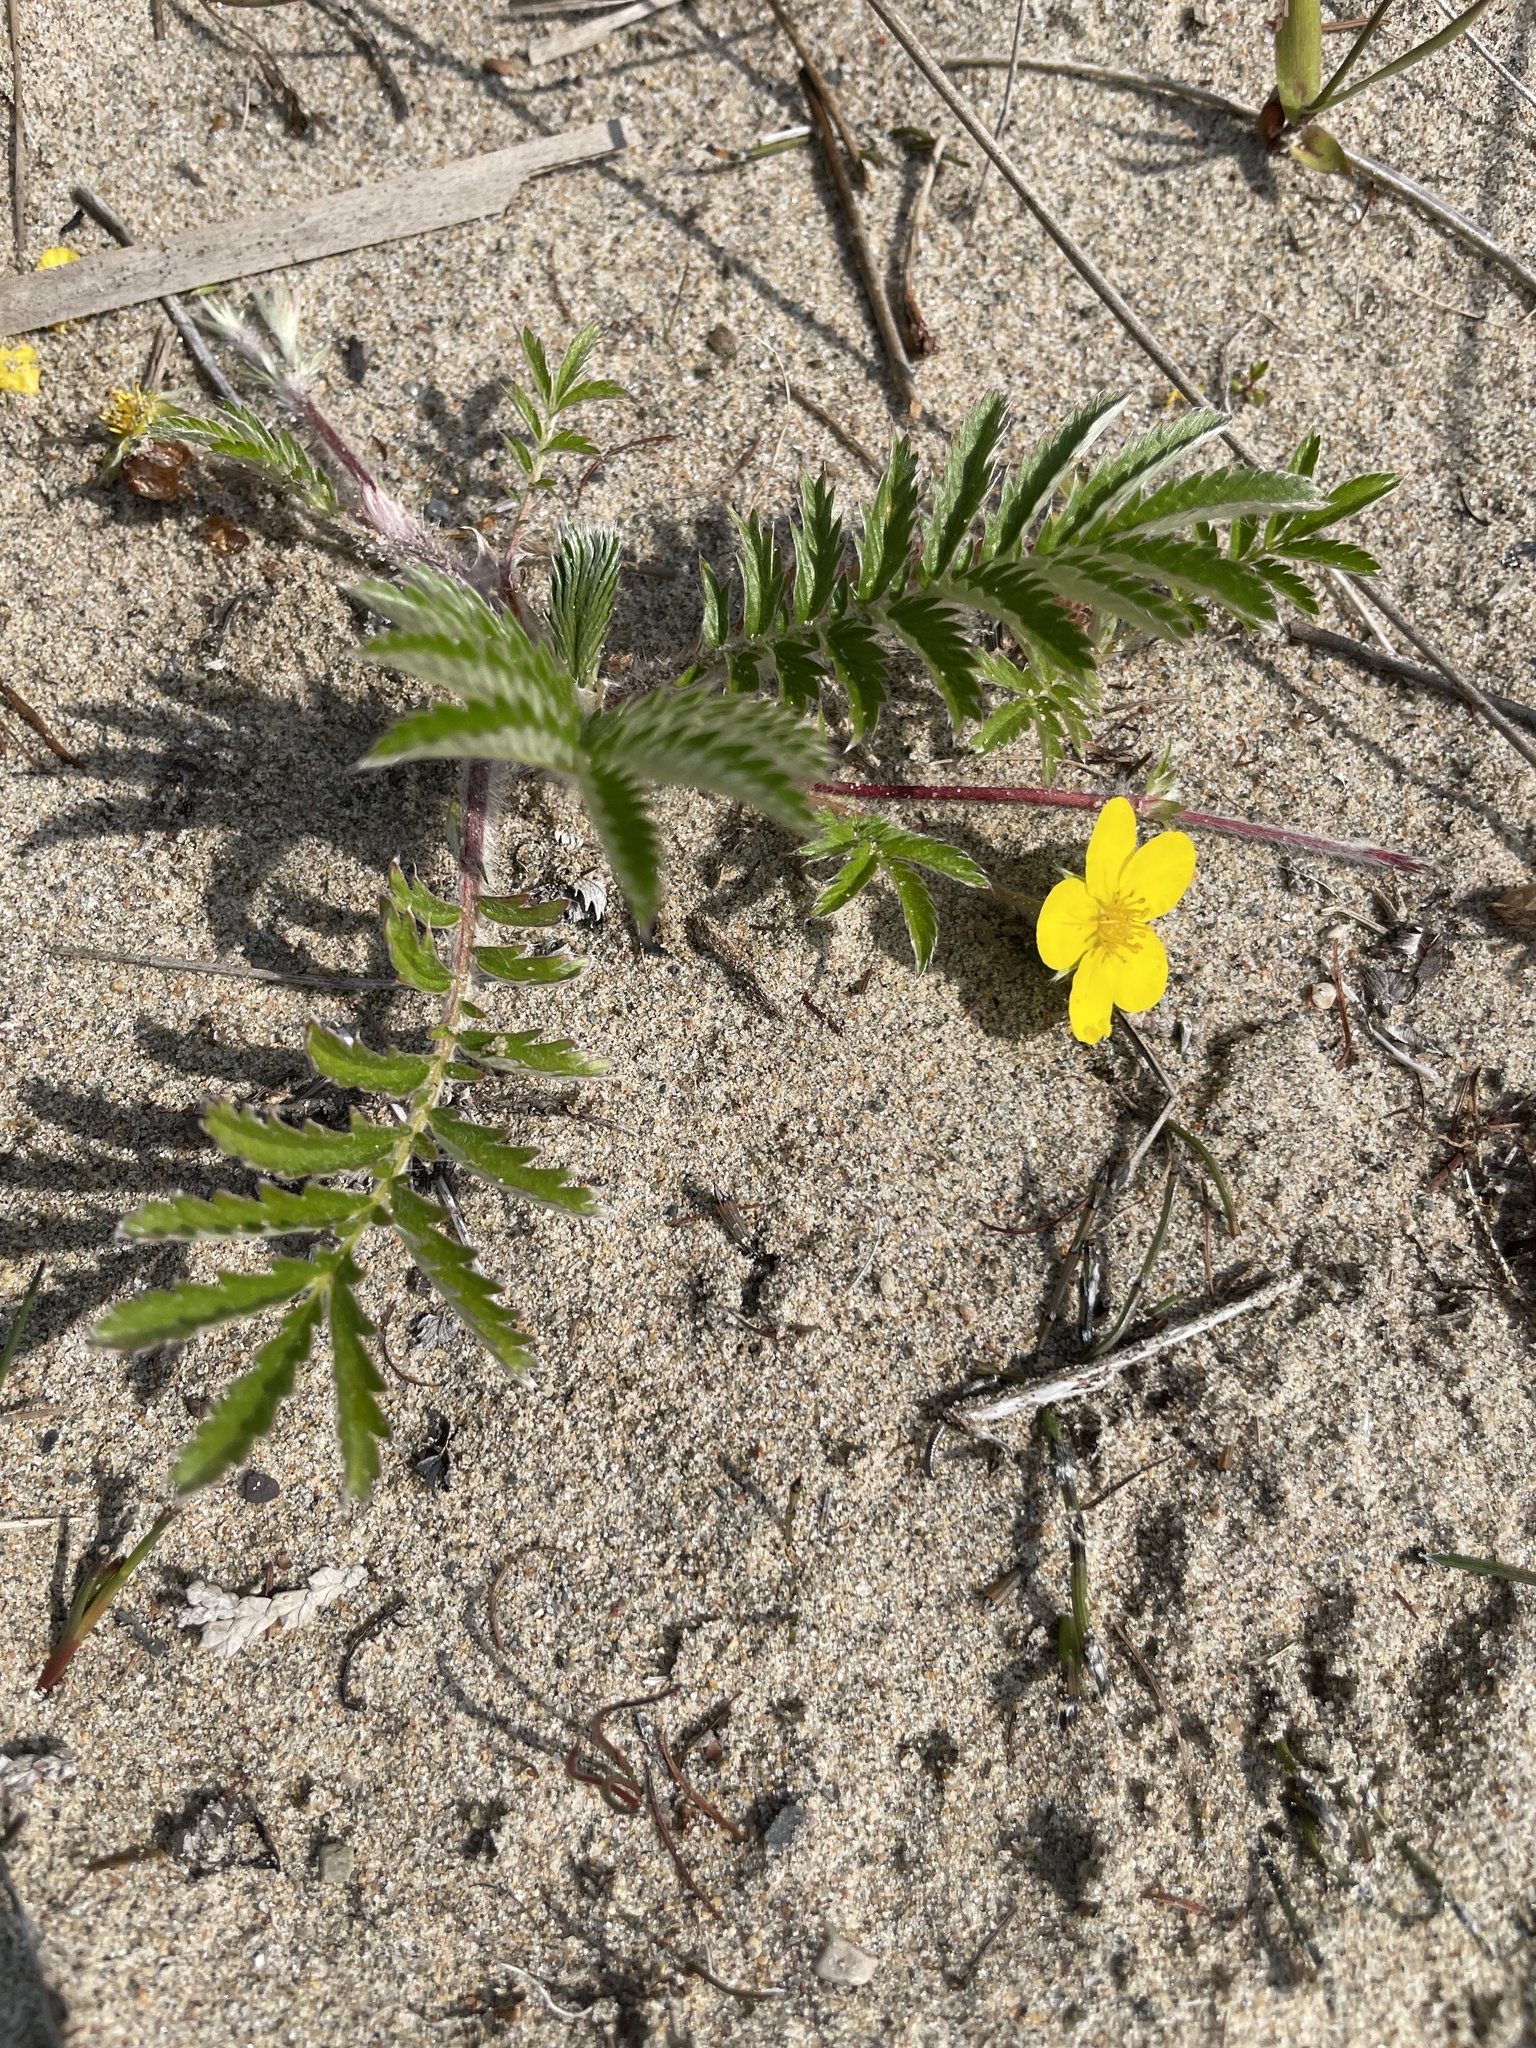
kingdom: Plantae
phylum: Tracheophyta
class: Magnoliopsida
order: Rosales
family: Rosaceae
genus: Argentina
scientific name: Argentina anserina
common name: Common silverweed
